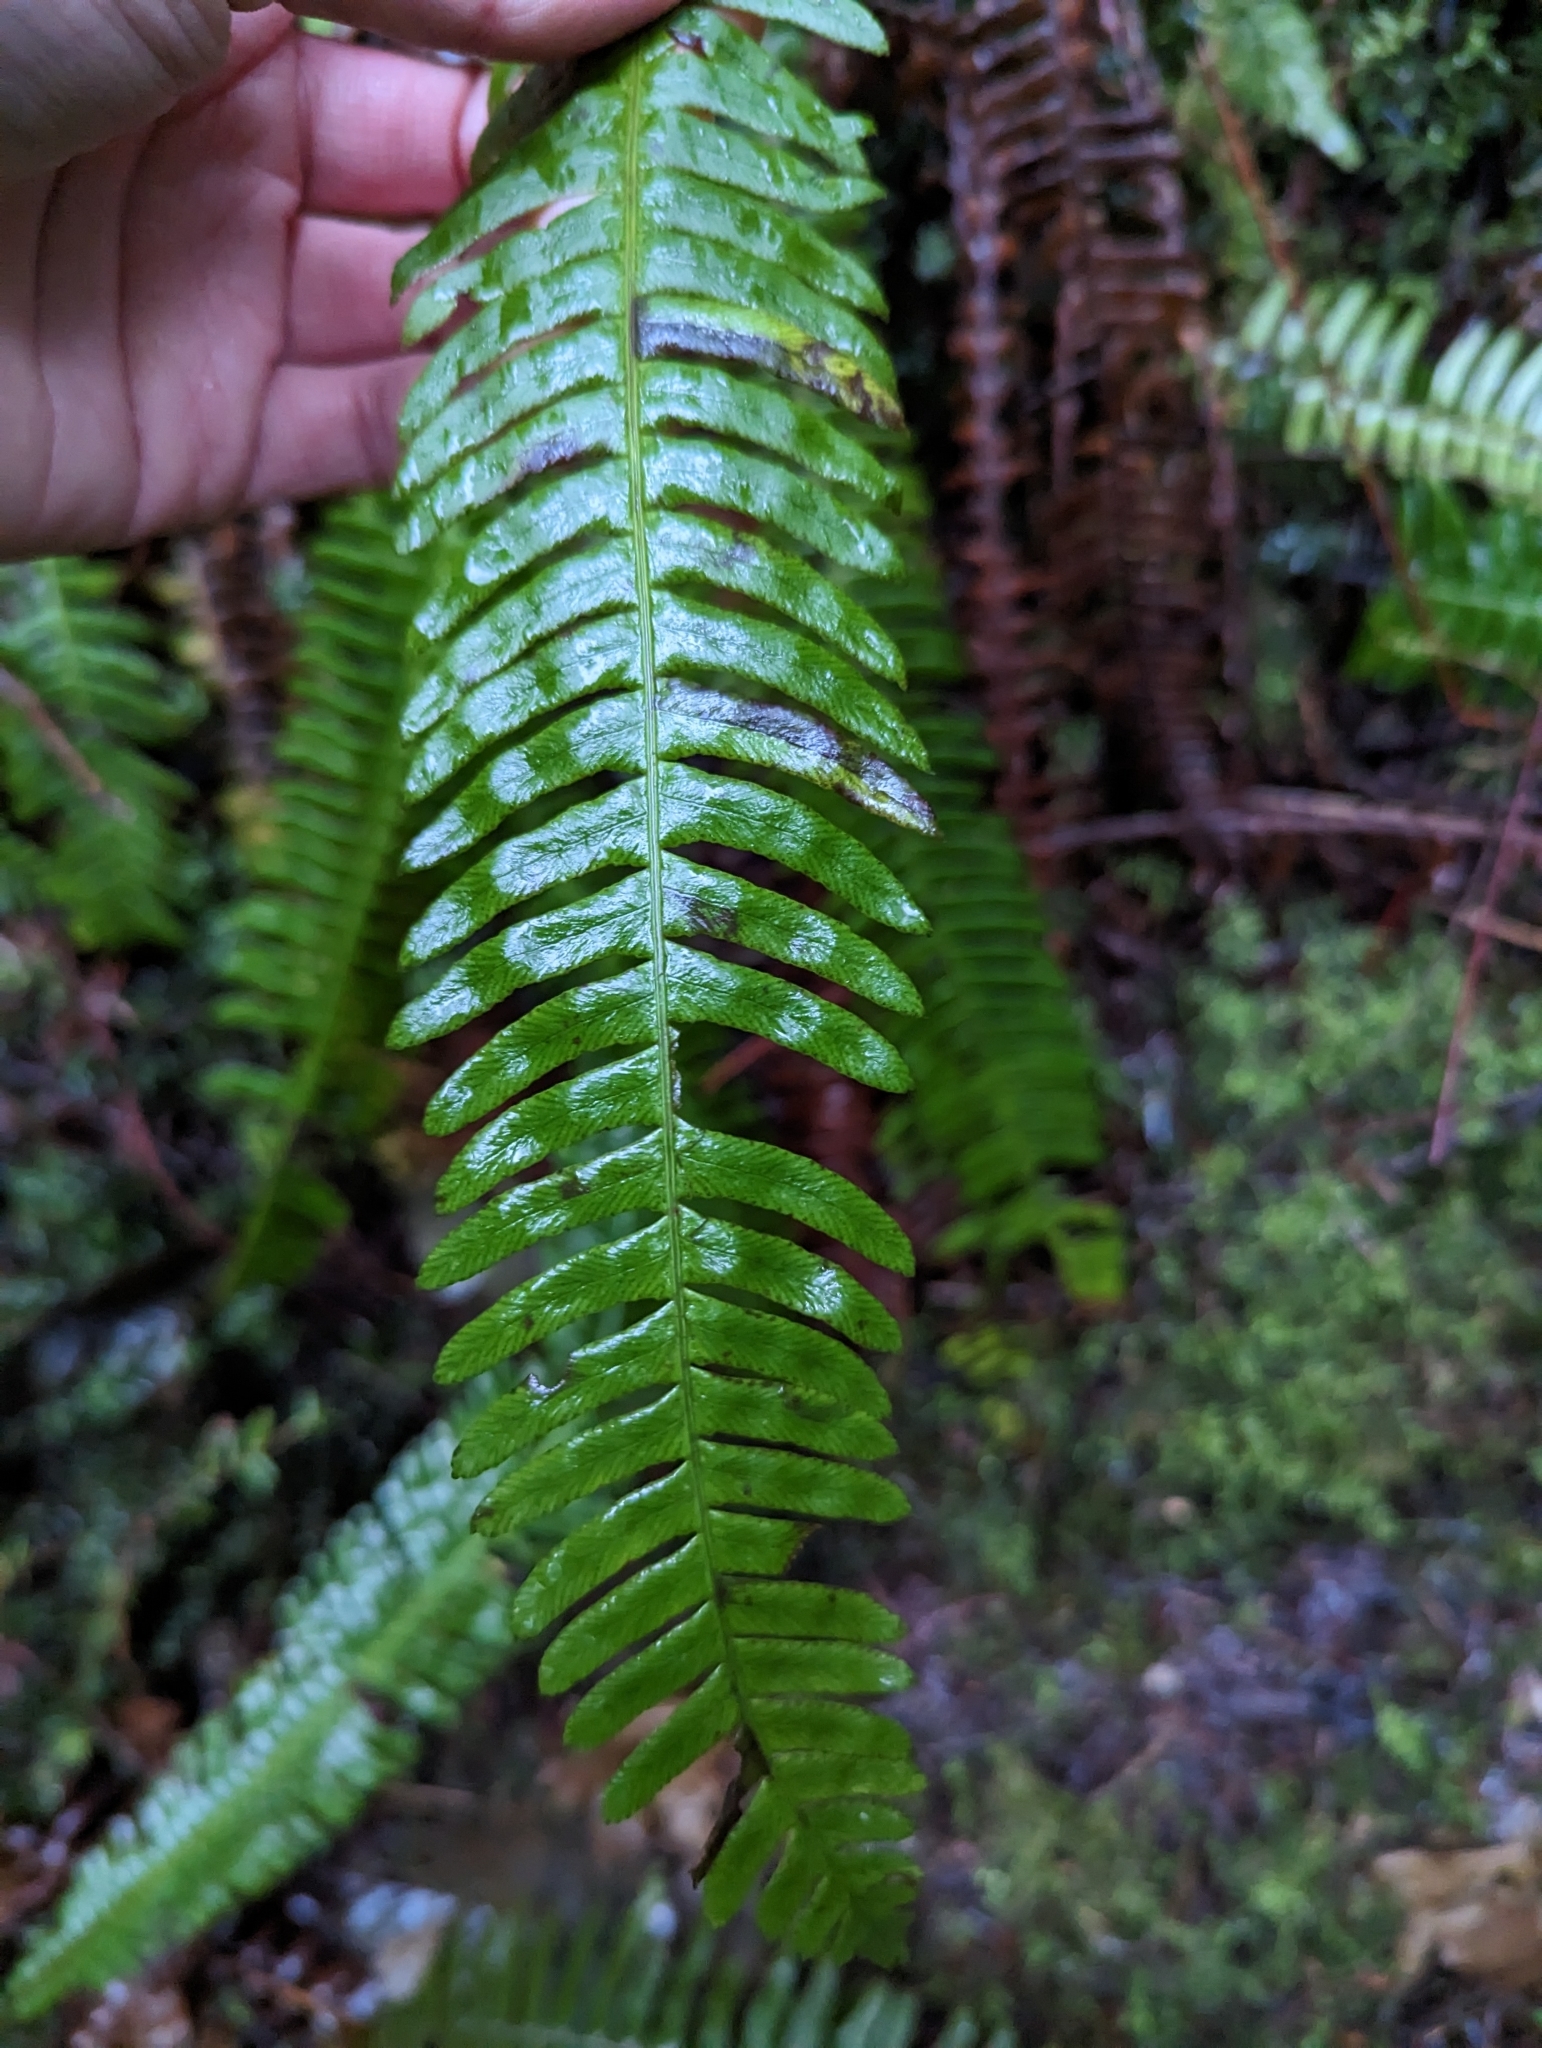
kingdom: Plantae
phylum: Tracheophyta
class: Polypodiopsida
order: Polypodiales
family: Blechnaceae
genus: Struthiopteris
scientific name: Struthiopteris spicant
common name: Deer fern
